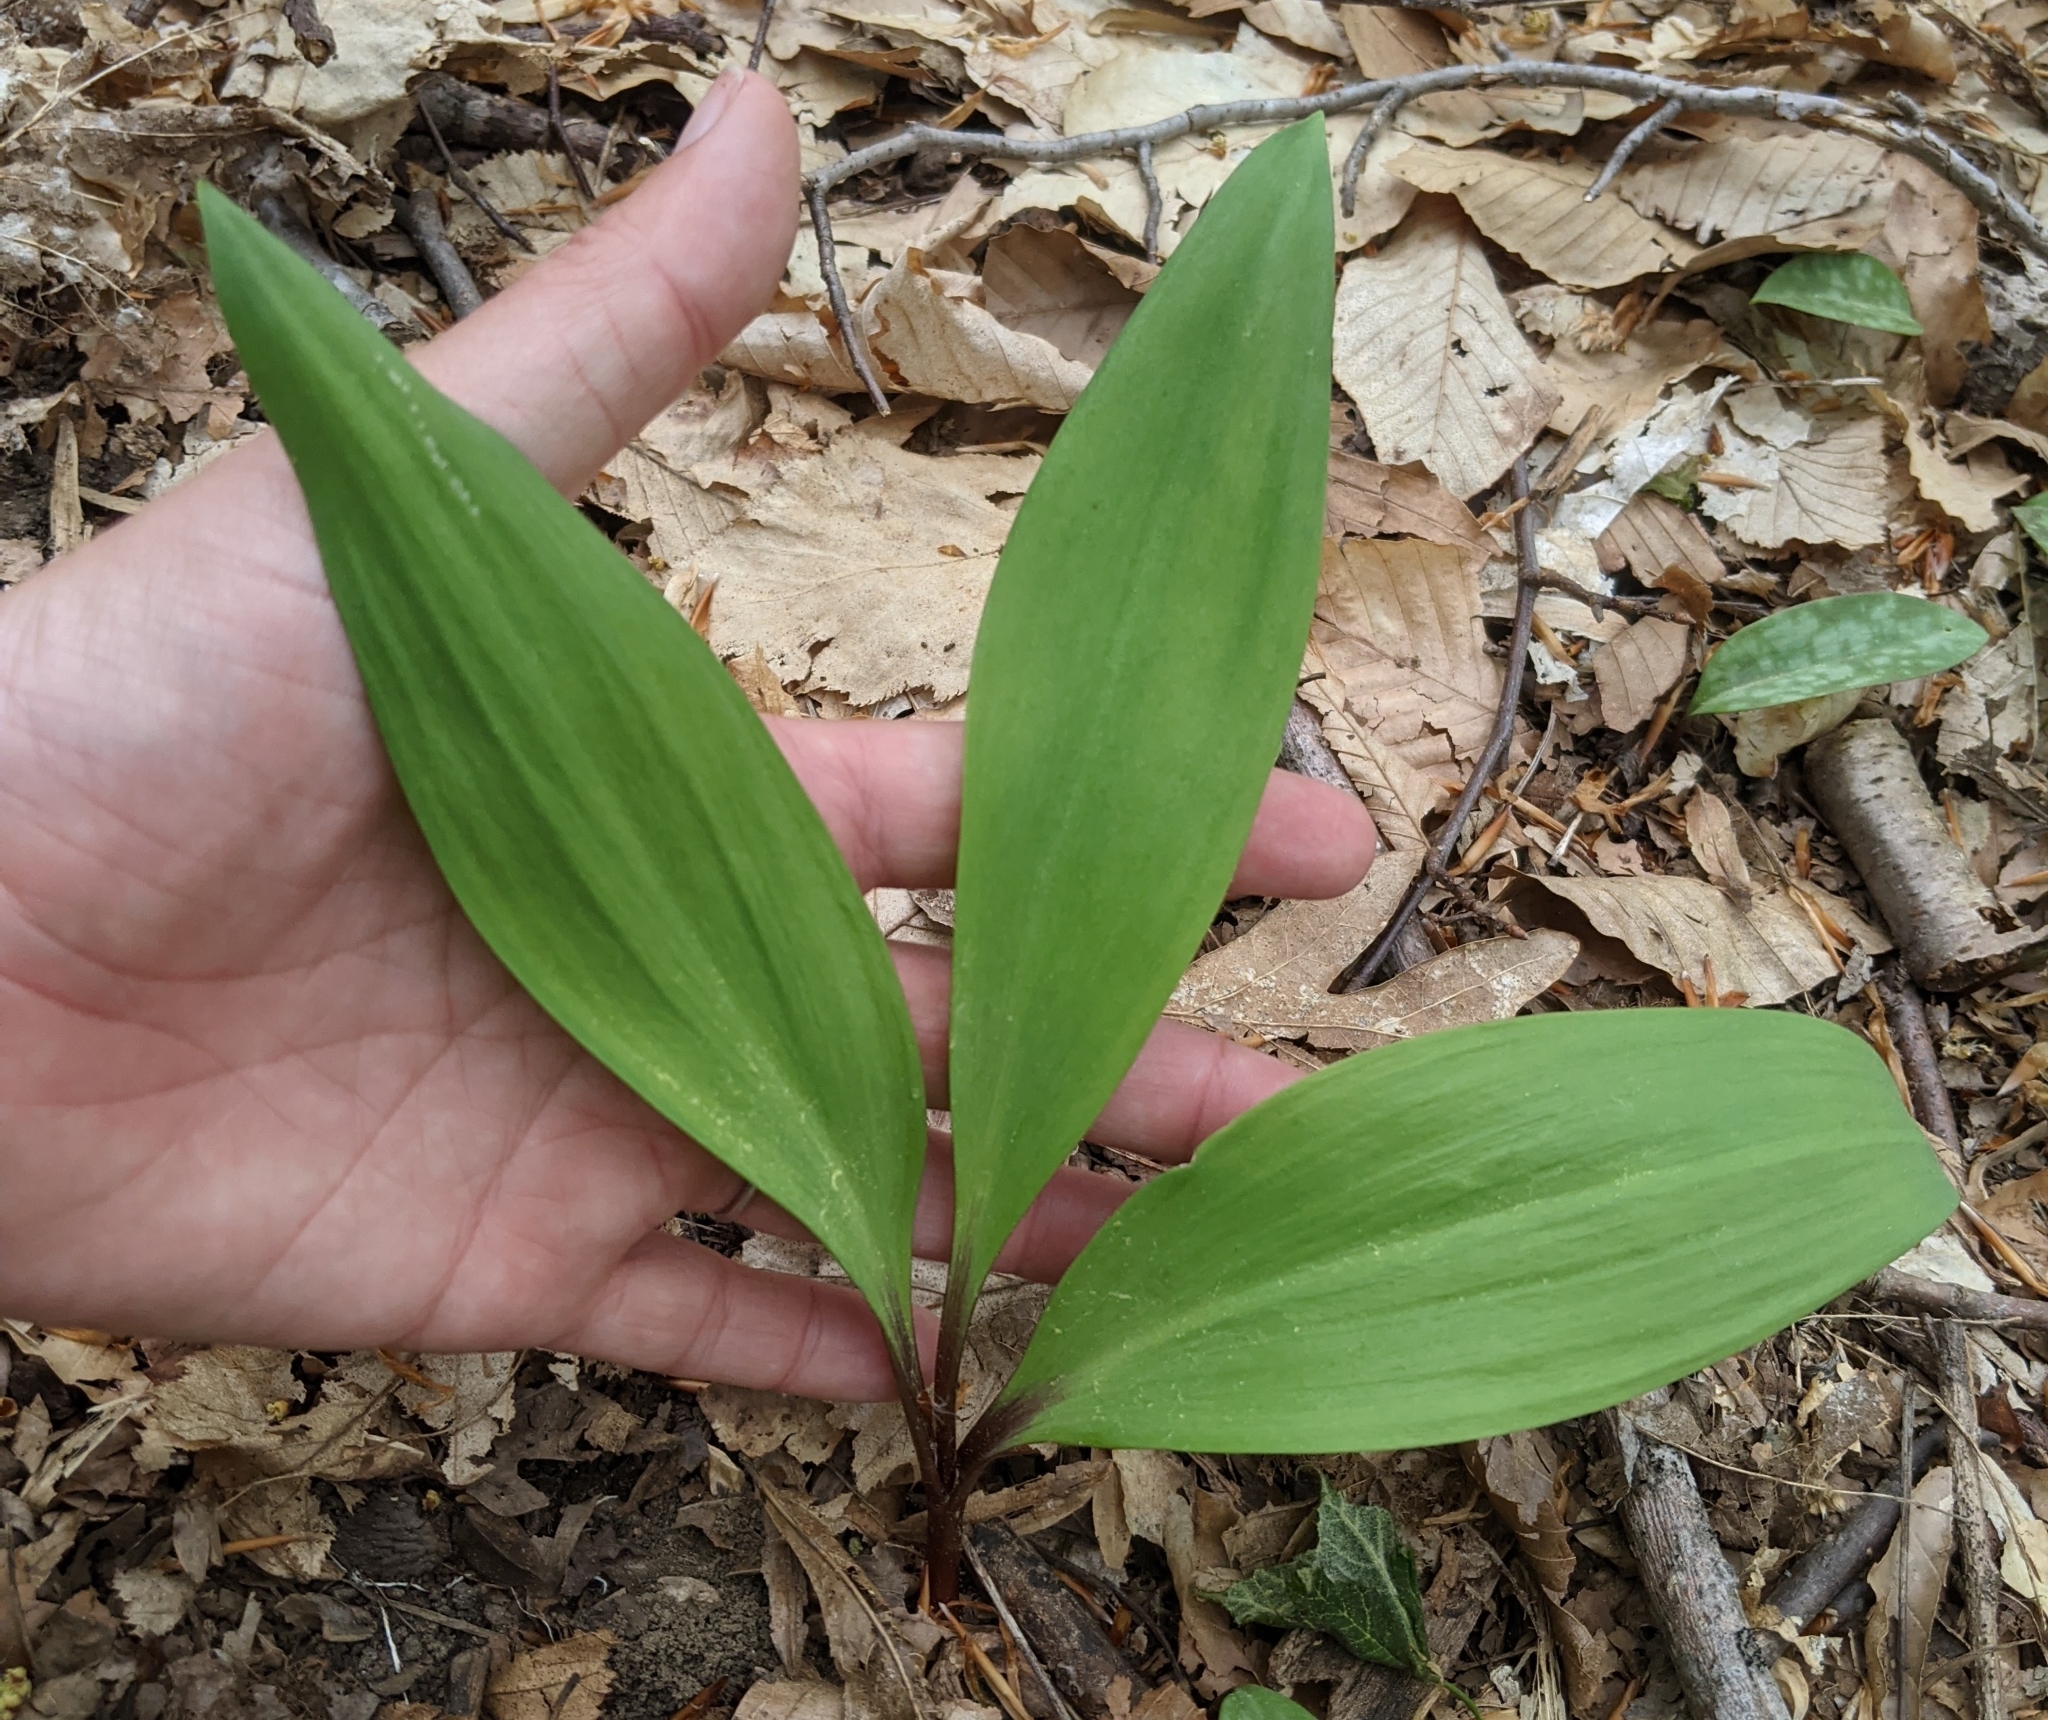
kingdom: Plantae
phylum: Tracheophyta
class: Liliopsida
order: Asparagales
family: Amaryllidaceae
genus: Allium
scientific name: Allium tricoccum
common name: Ramp
